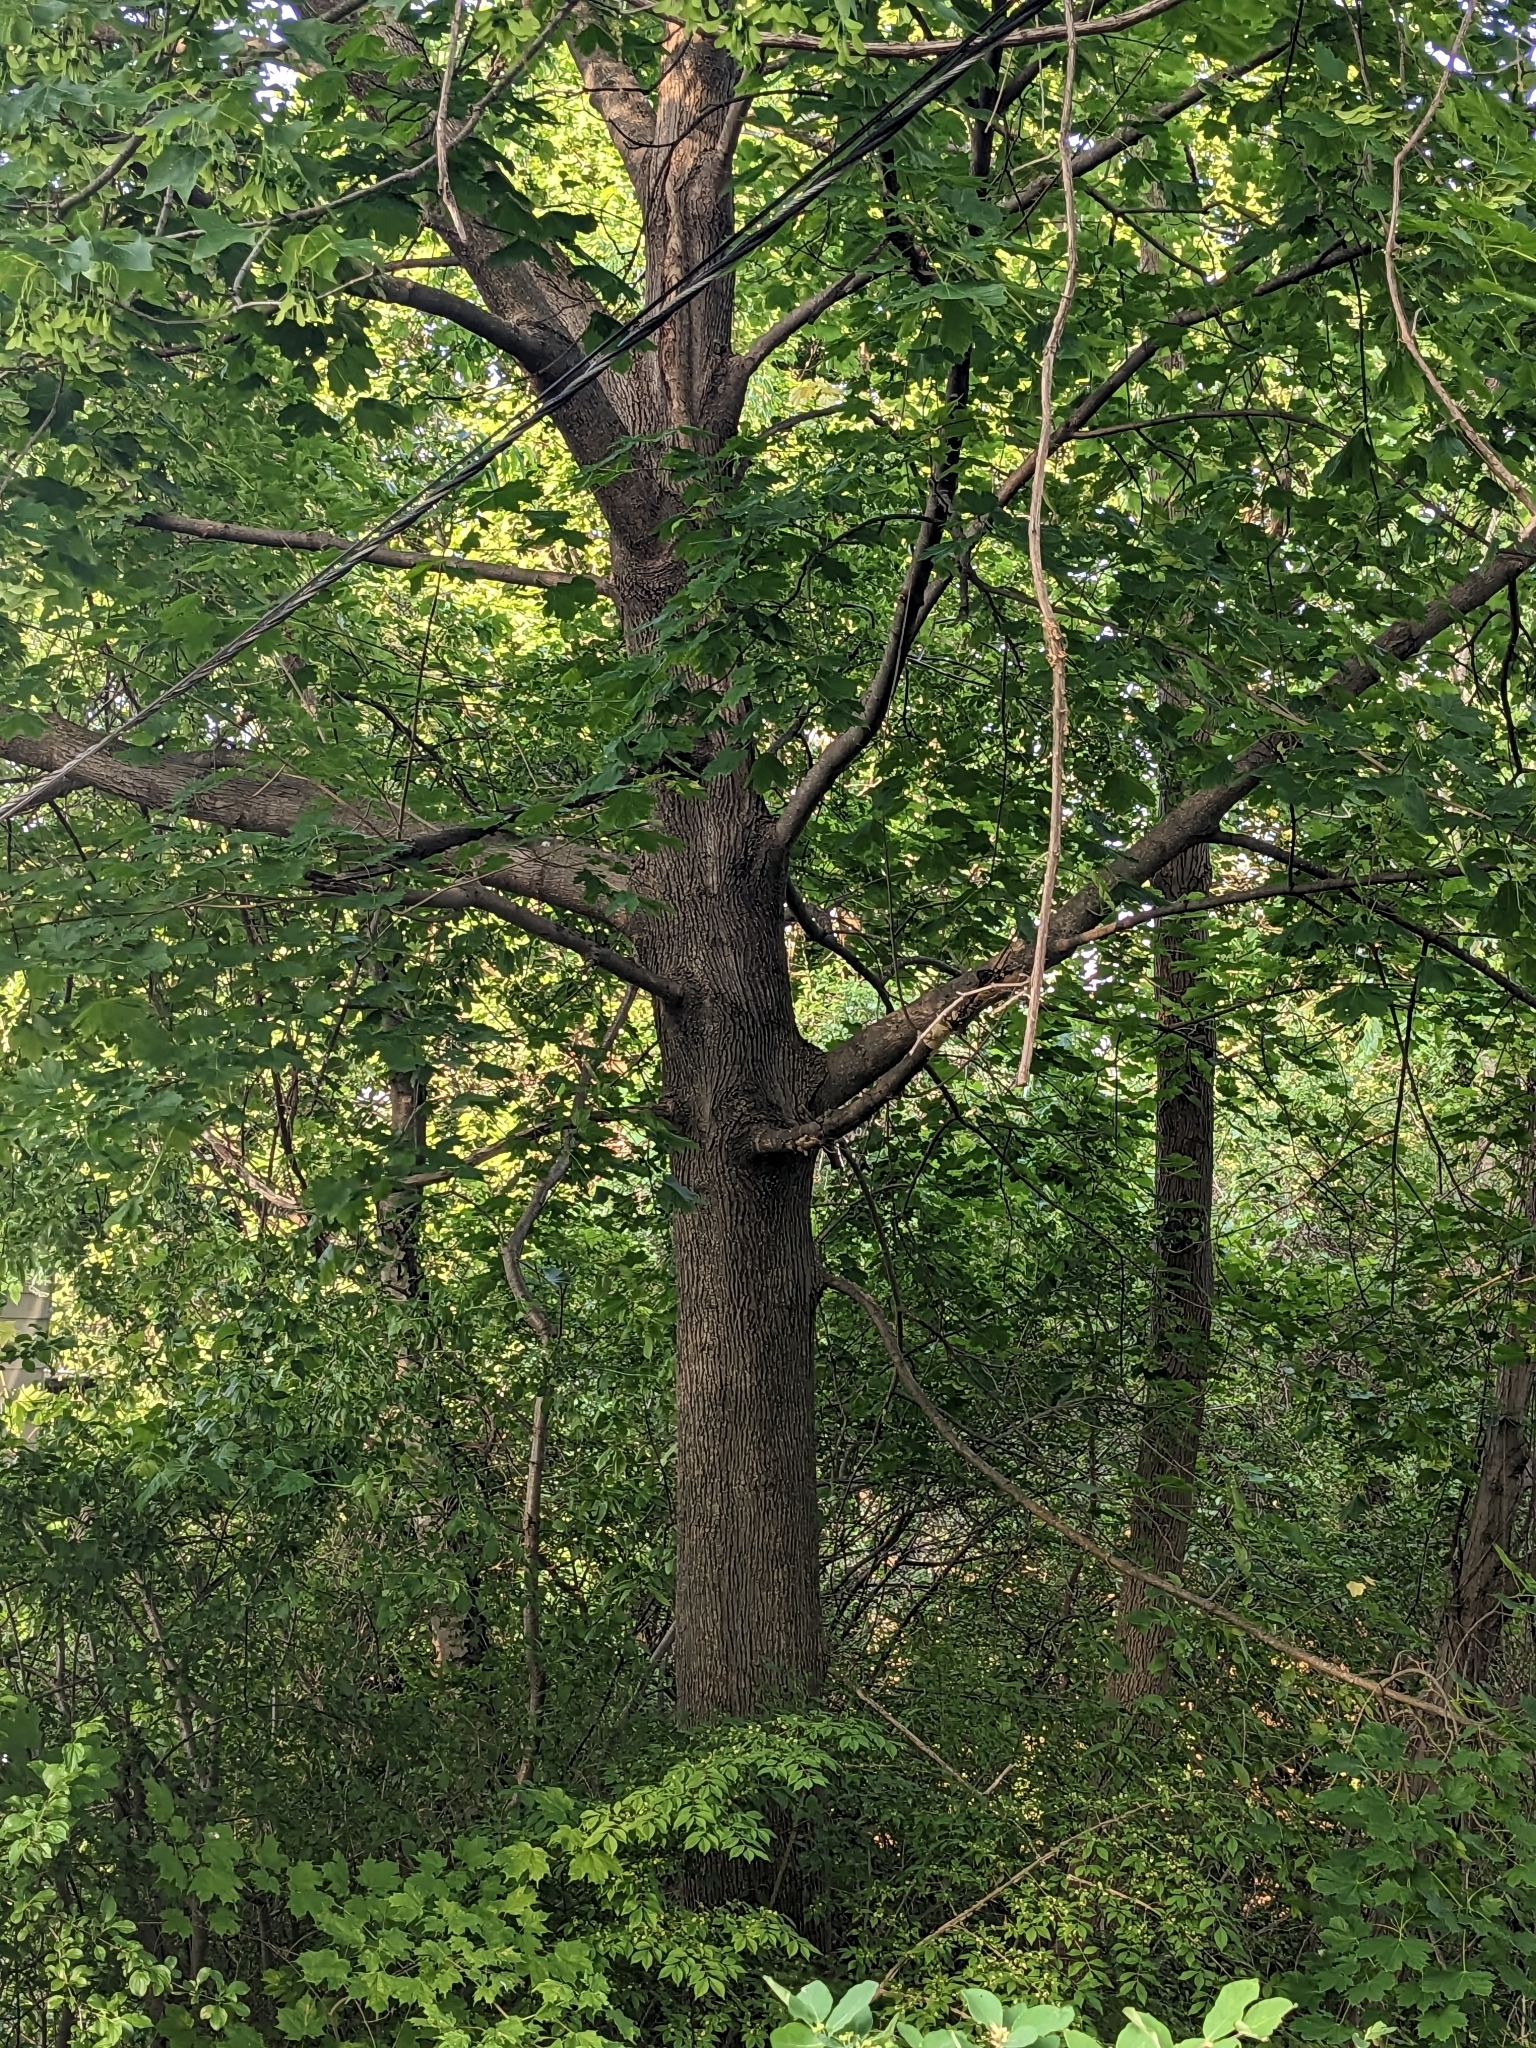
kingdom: Plantae
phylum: Tracheophyta
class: Magnoliopsida
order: Sapindales
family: Sapindaceae
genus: Acer
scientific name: Acer platanoides
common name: Norway maple
